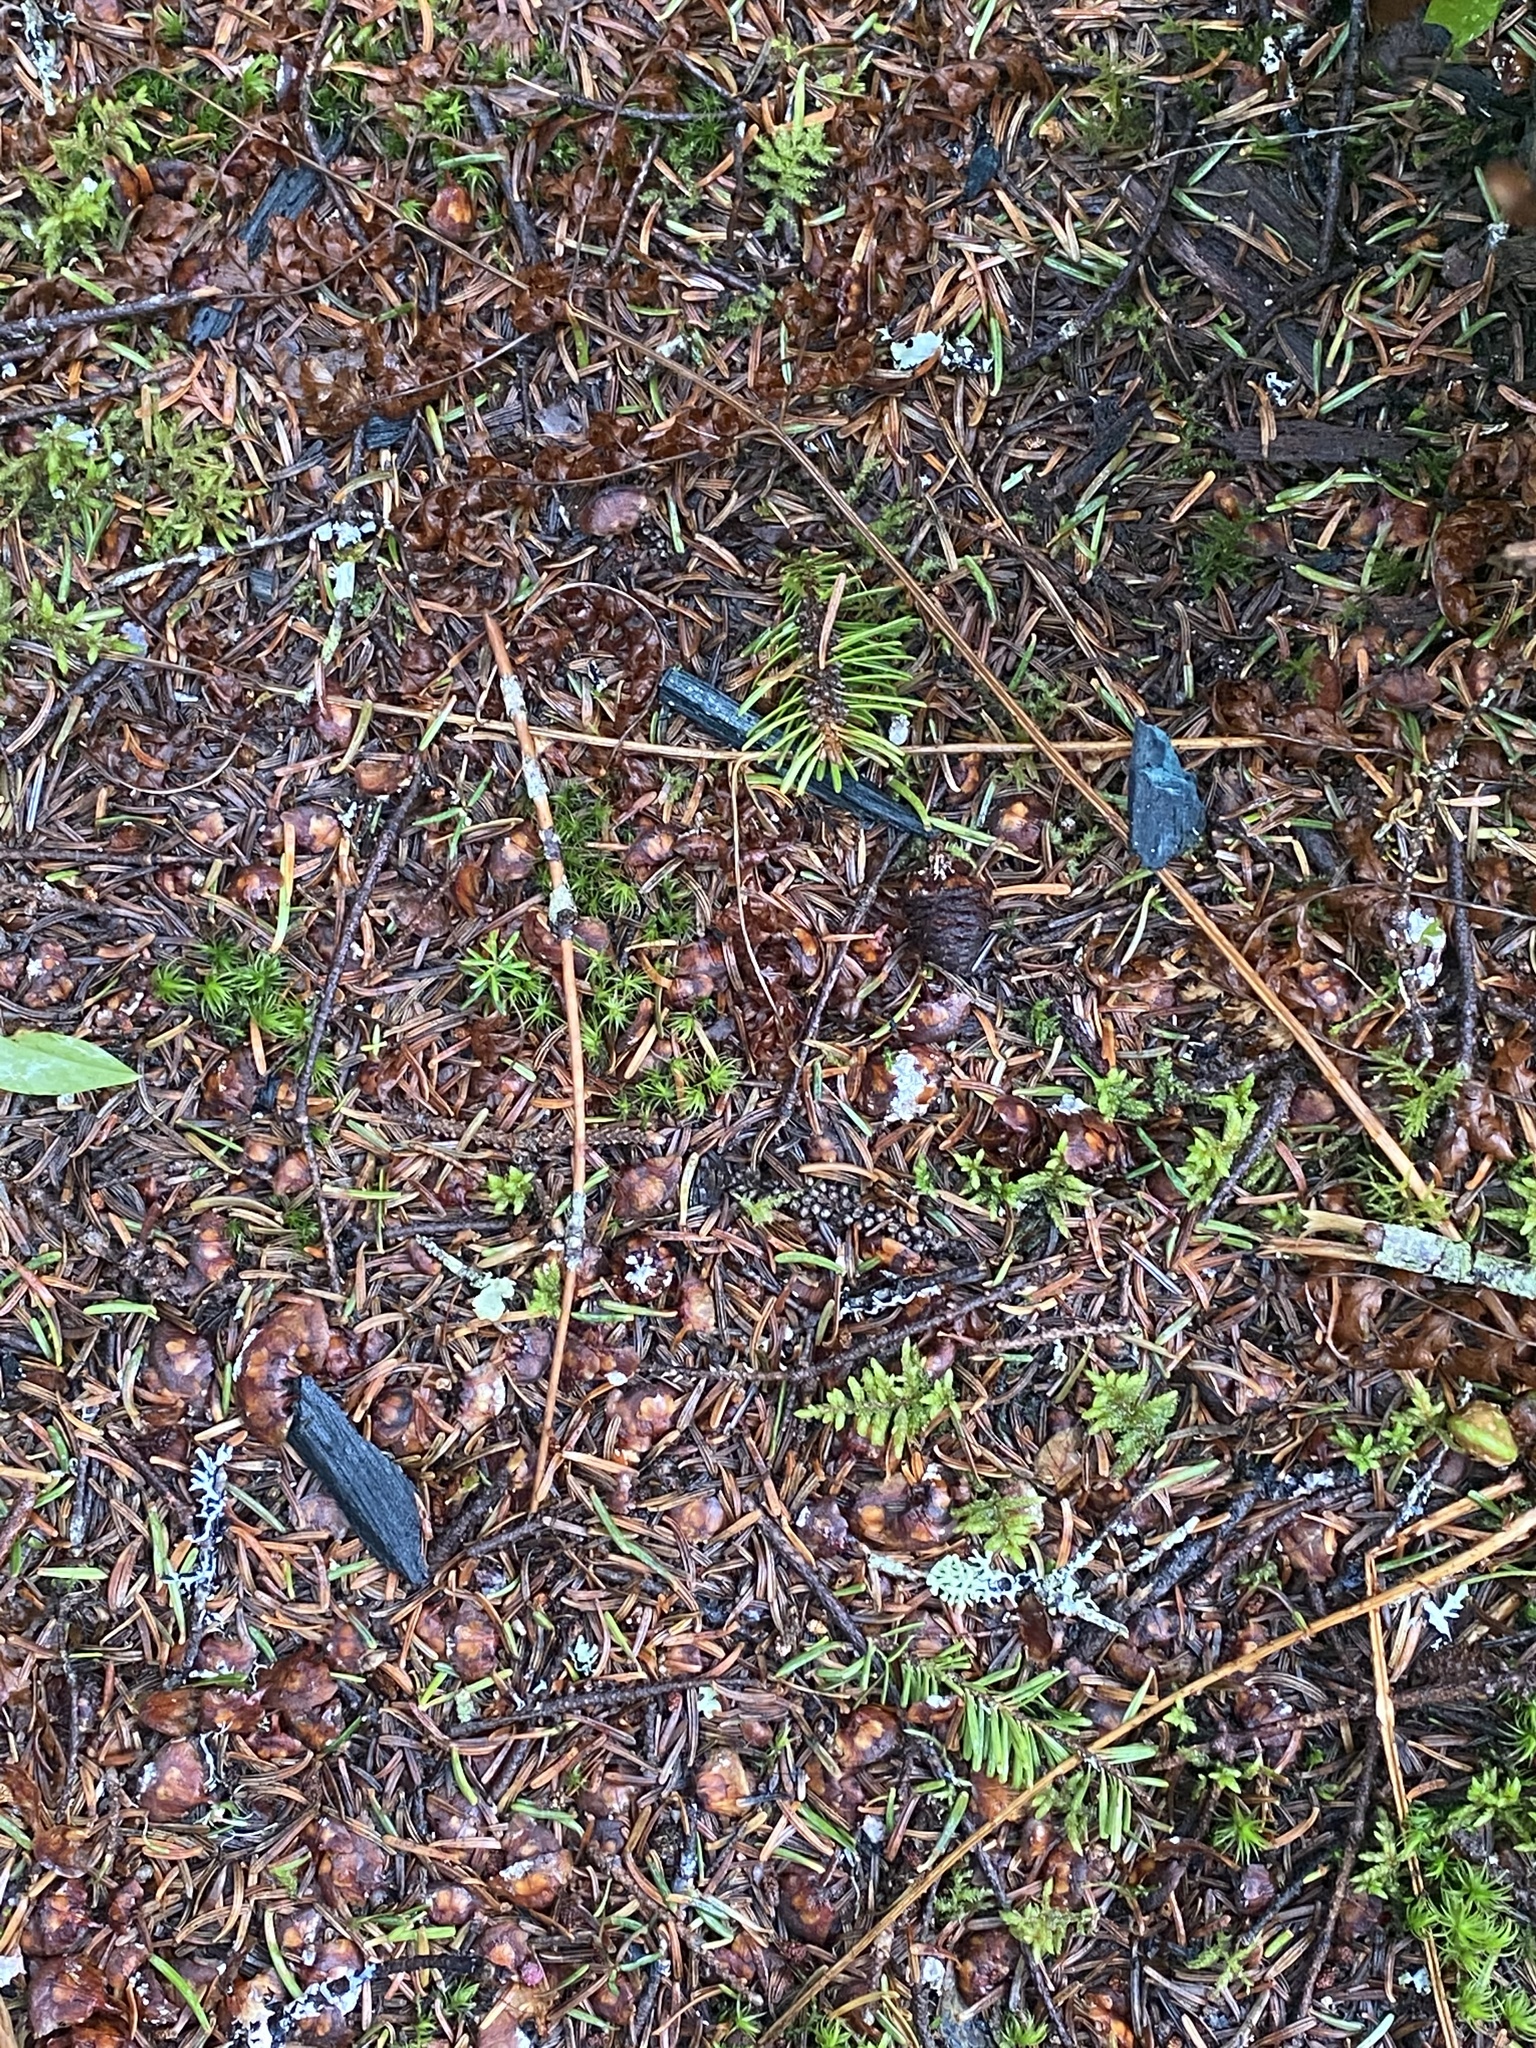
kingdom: Fungi
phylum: Ascomycota
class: Leotiomycetes
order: Helotiales
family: Chlorociboriaceae
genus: Chlorociboria
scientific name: Chlorociboria
